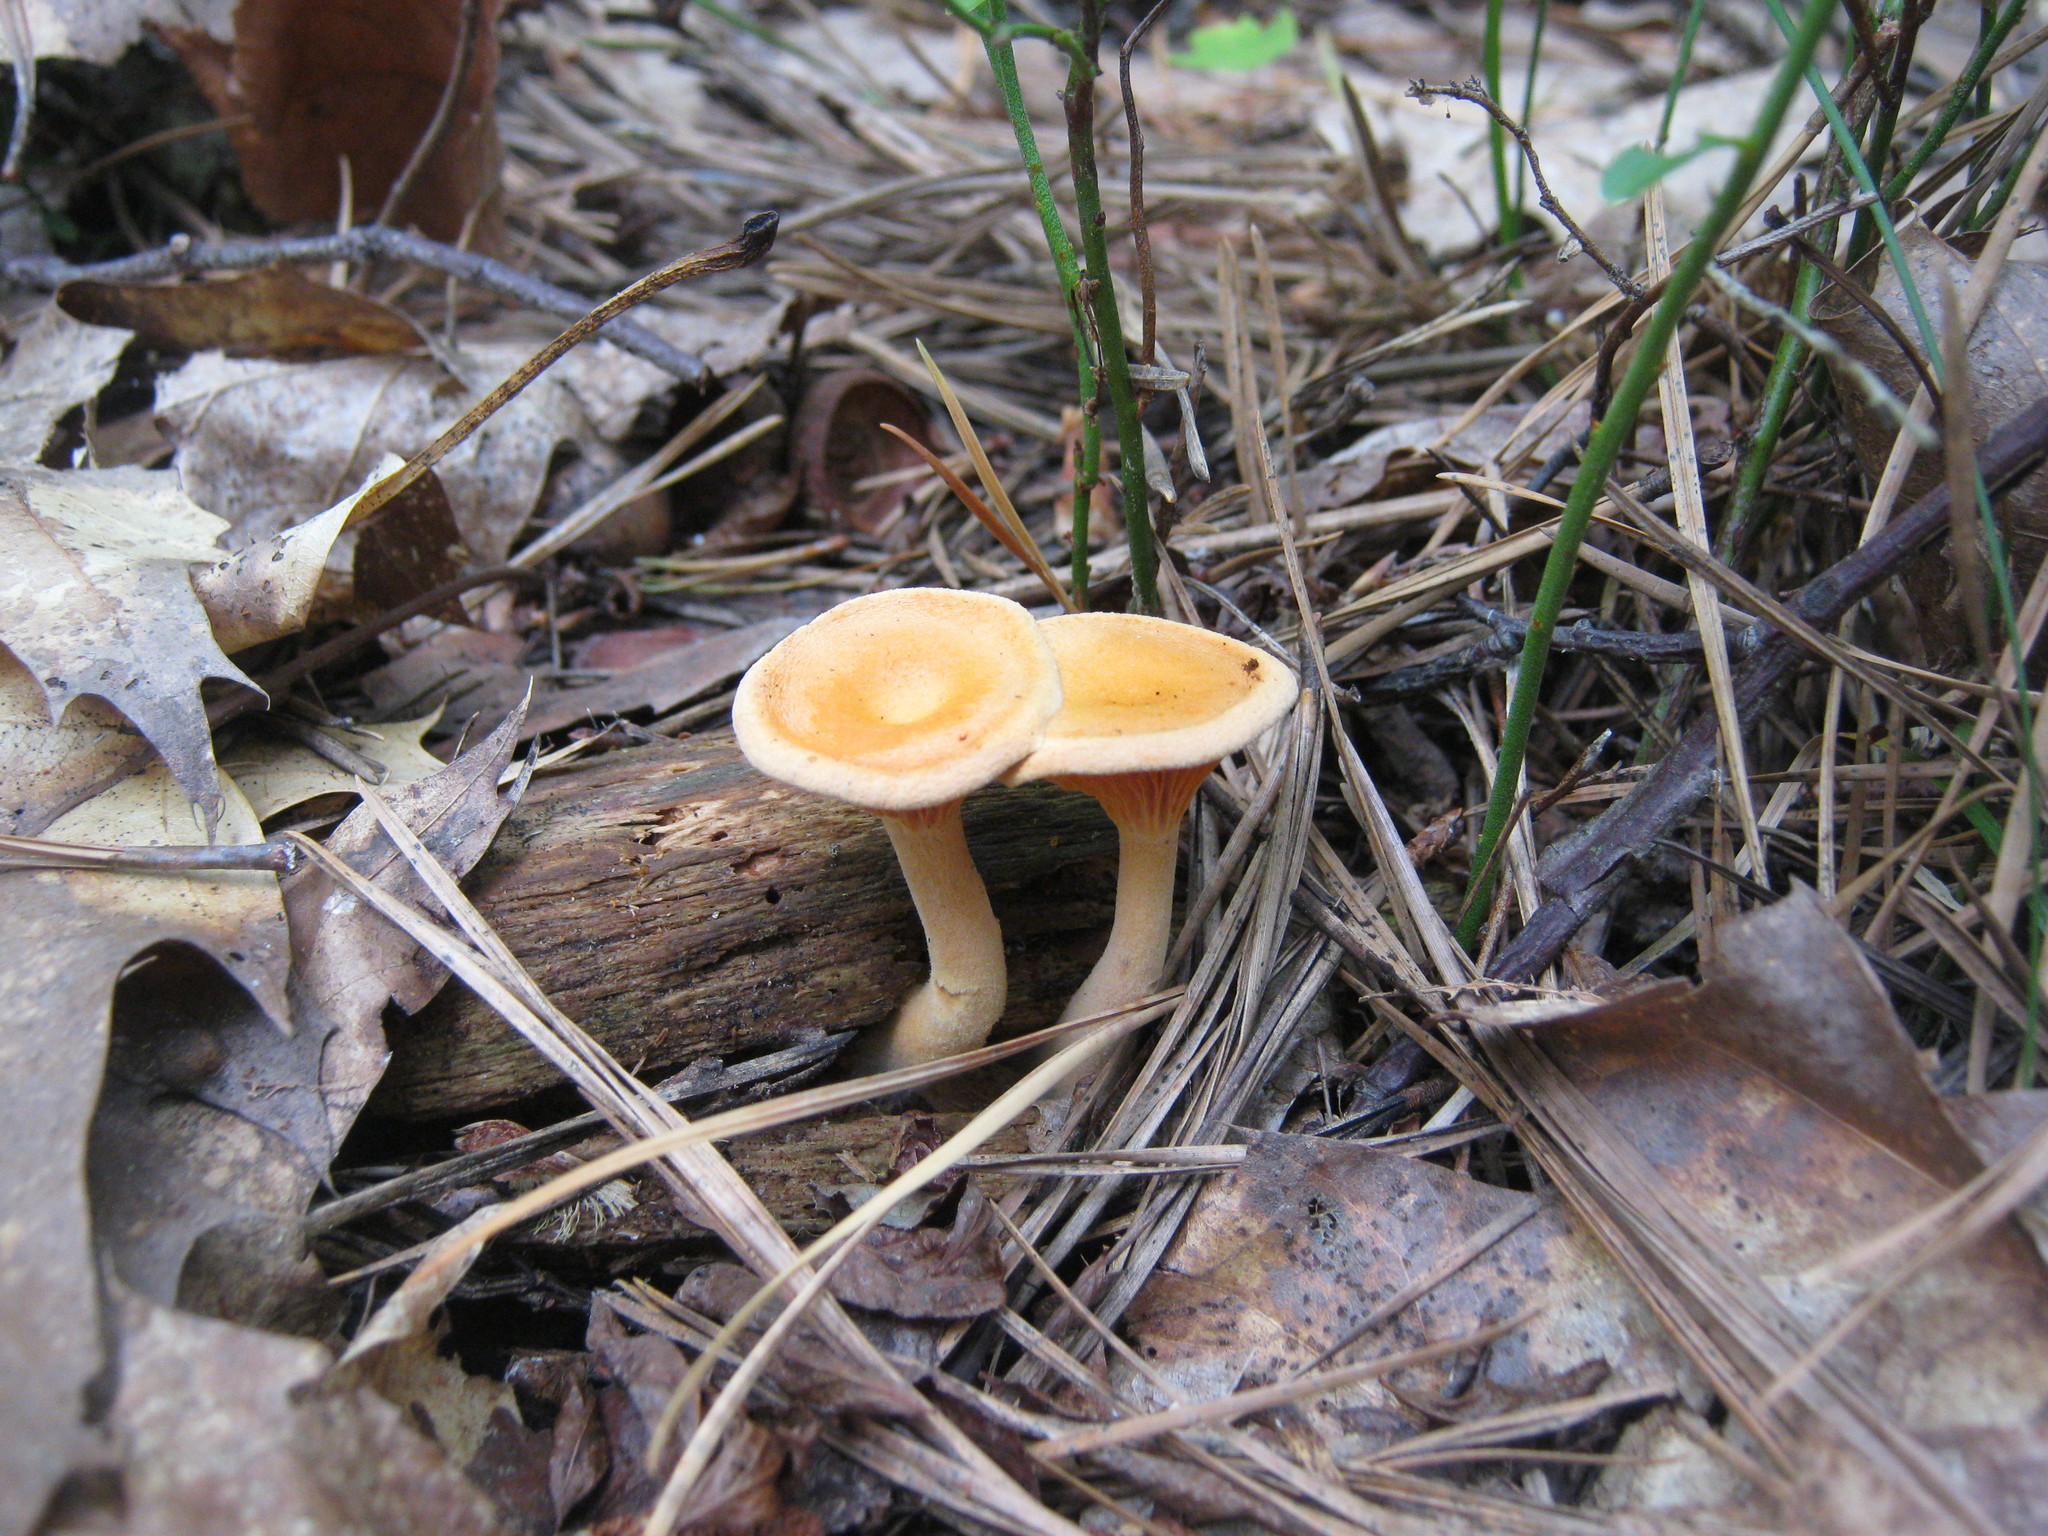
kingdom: Fungi
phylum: Basidiomycota
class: Agaricomycetes
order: Boletales
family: Hygrophoropsidaceae
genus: Hygrophoropsis
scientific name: Hygrophoropsis aurantiaca
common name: False chanterelle
